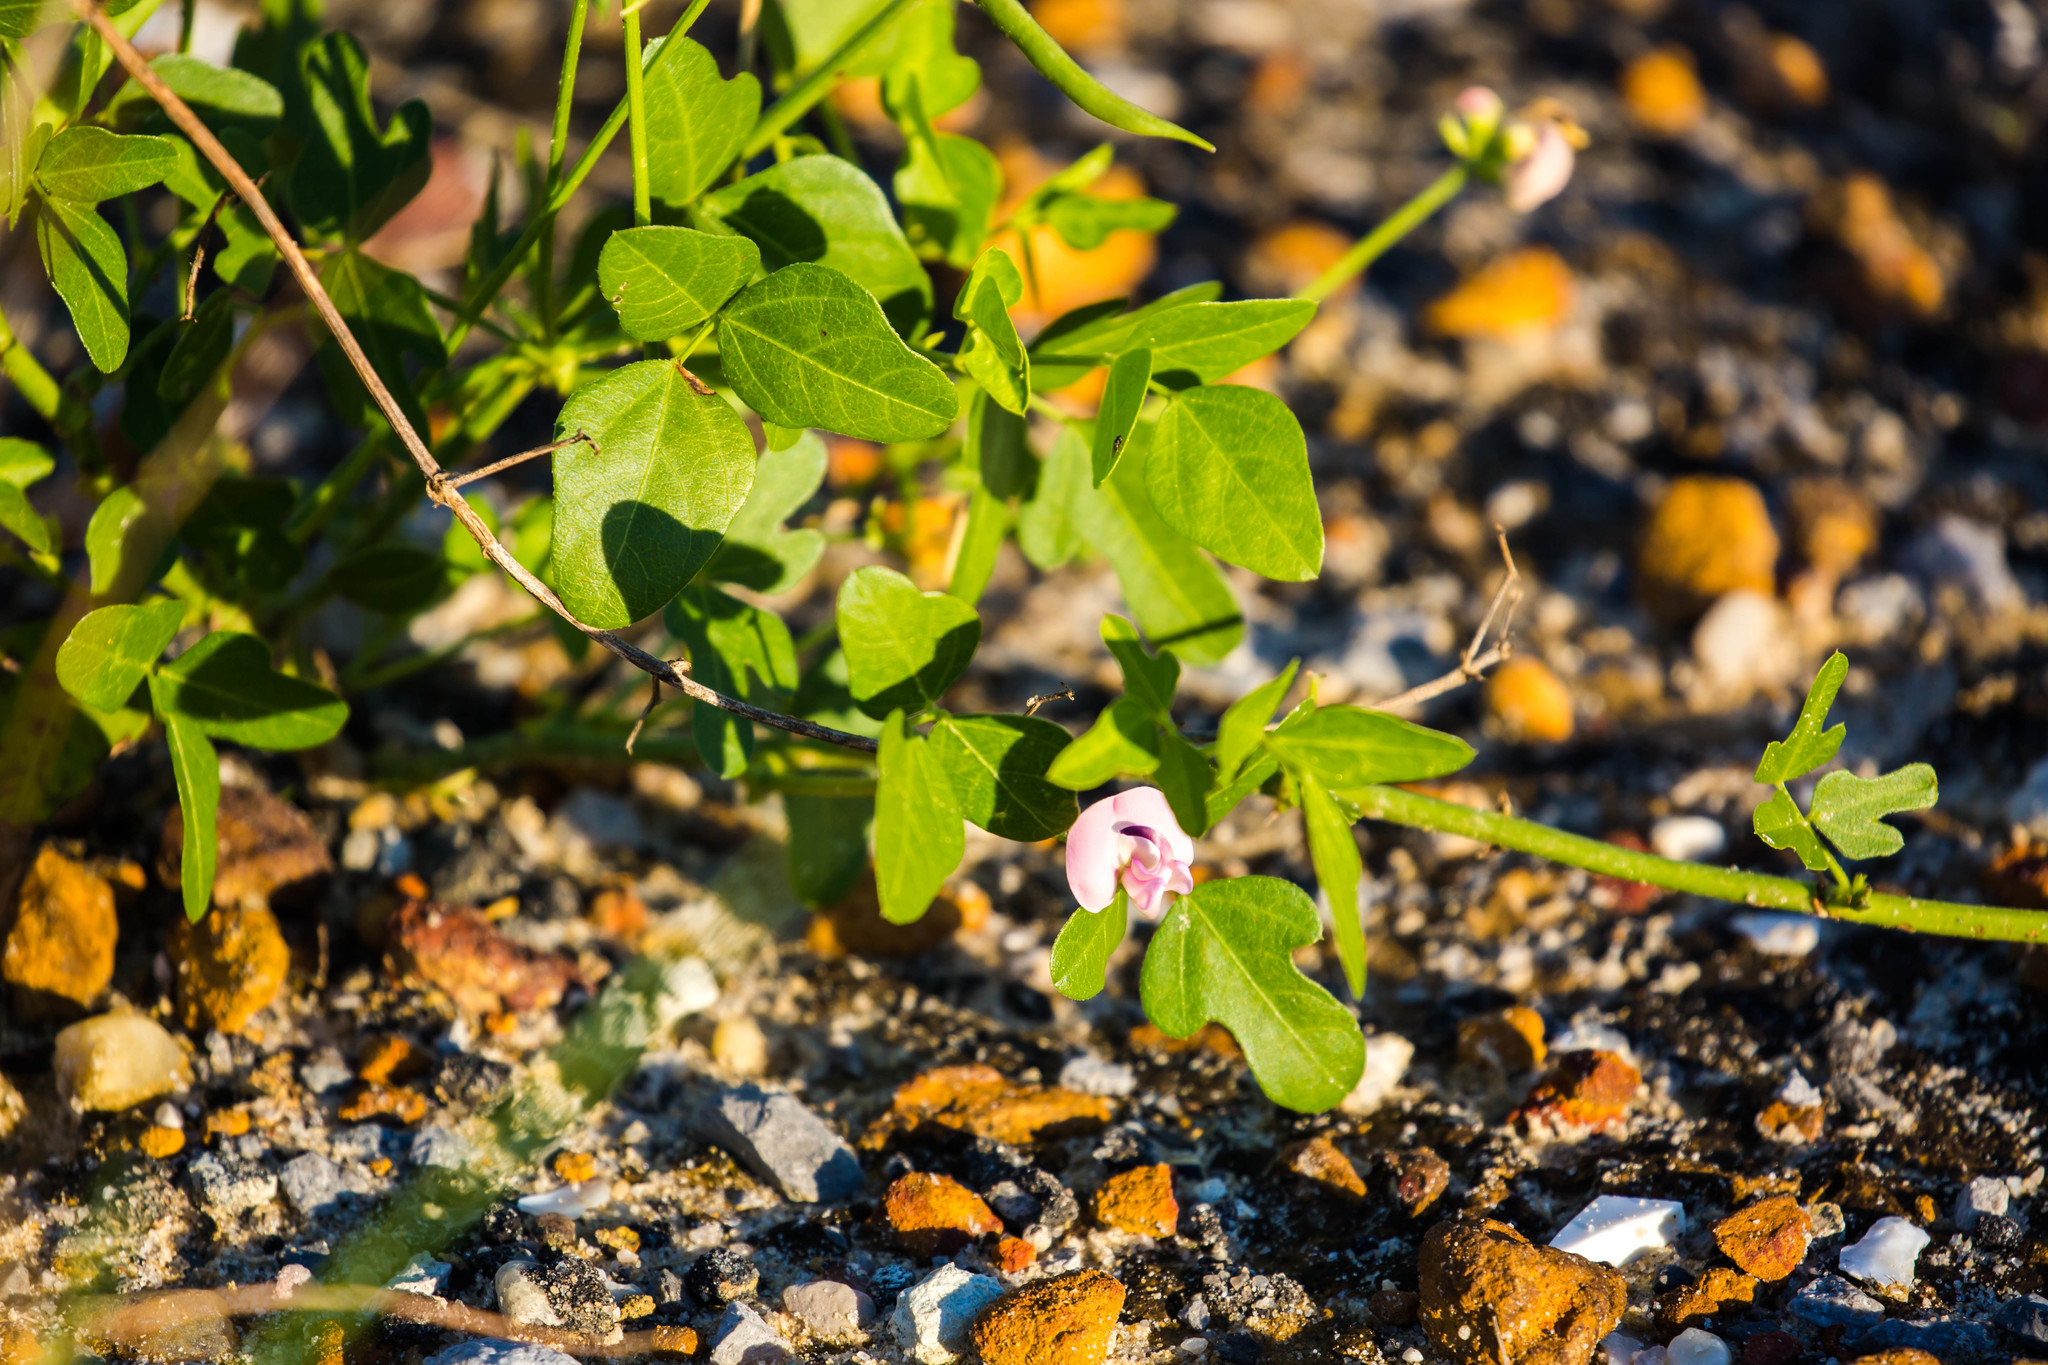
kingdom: Plantae
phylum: Tracheophyta
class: Magnoliopsida
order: Fabales
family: Fabaceae
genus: Strophostyles
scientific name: Strophostyles helvola
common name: Trailing wild bean
